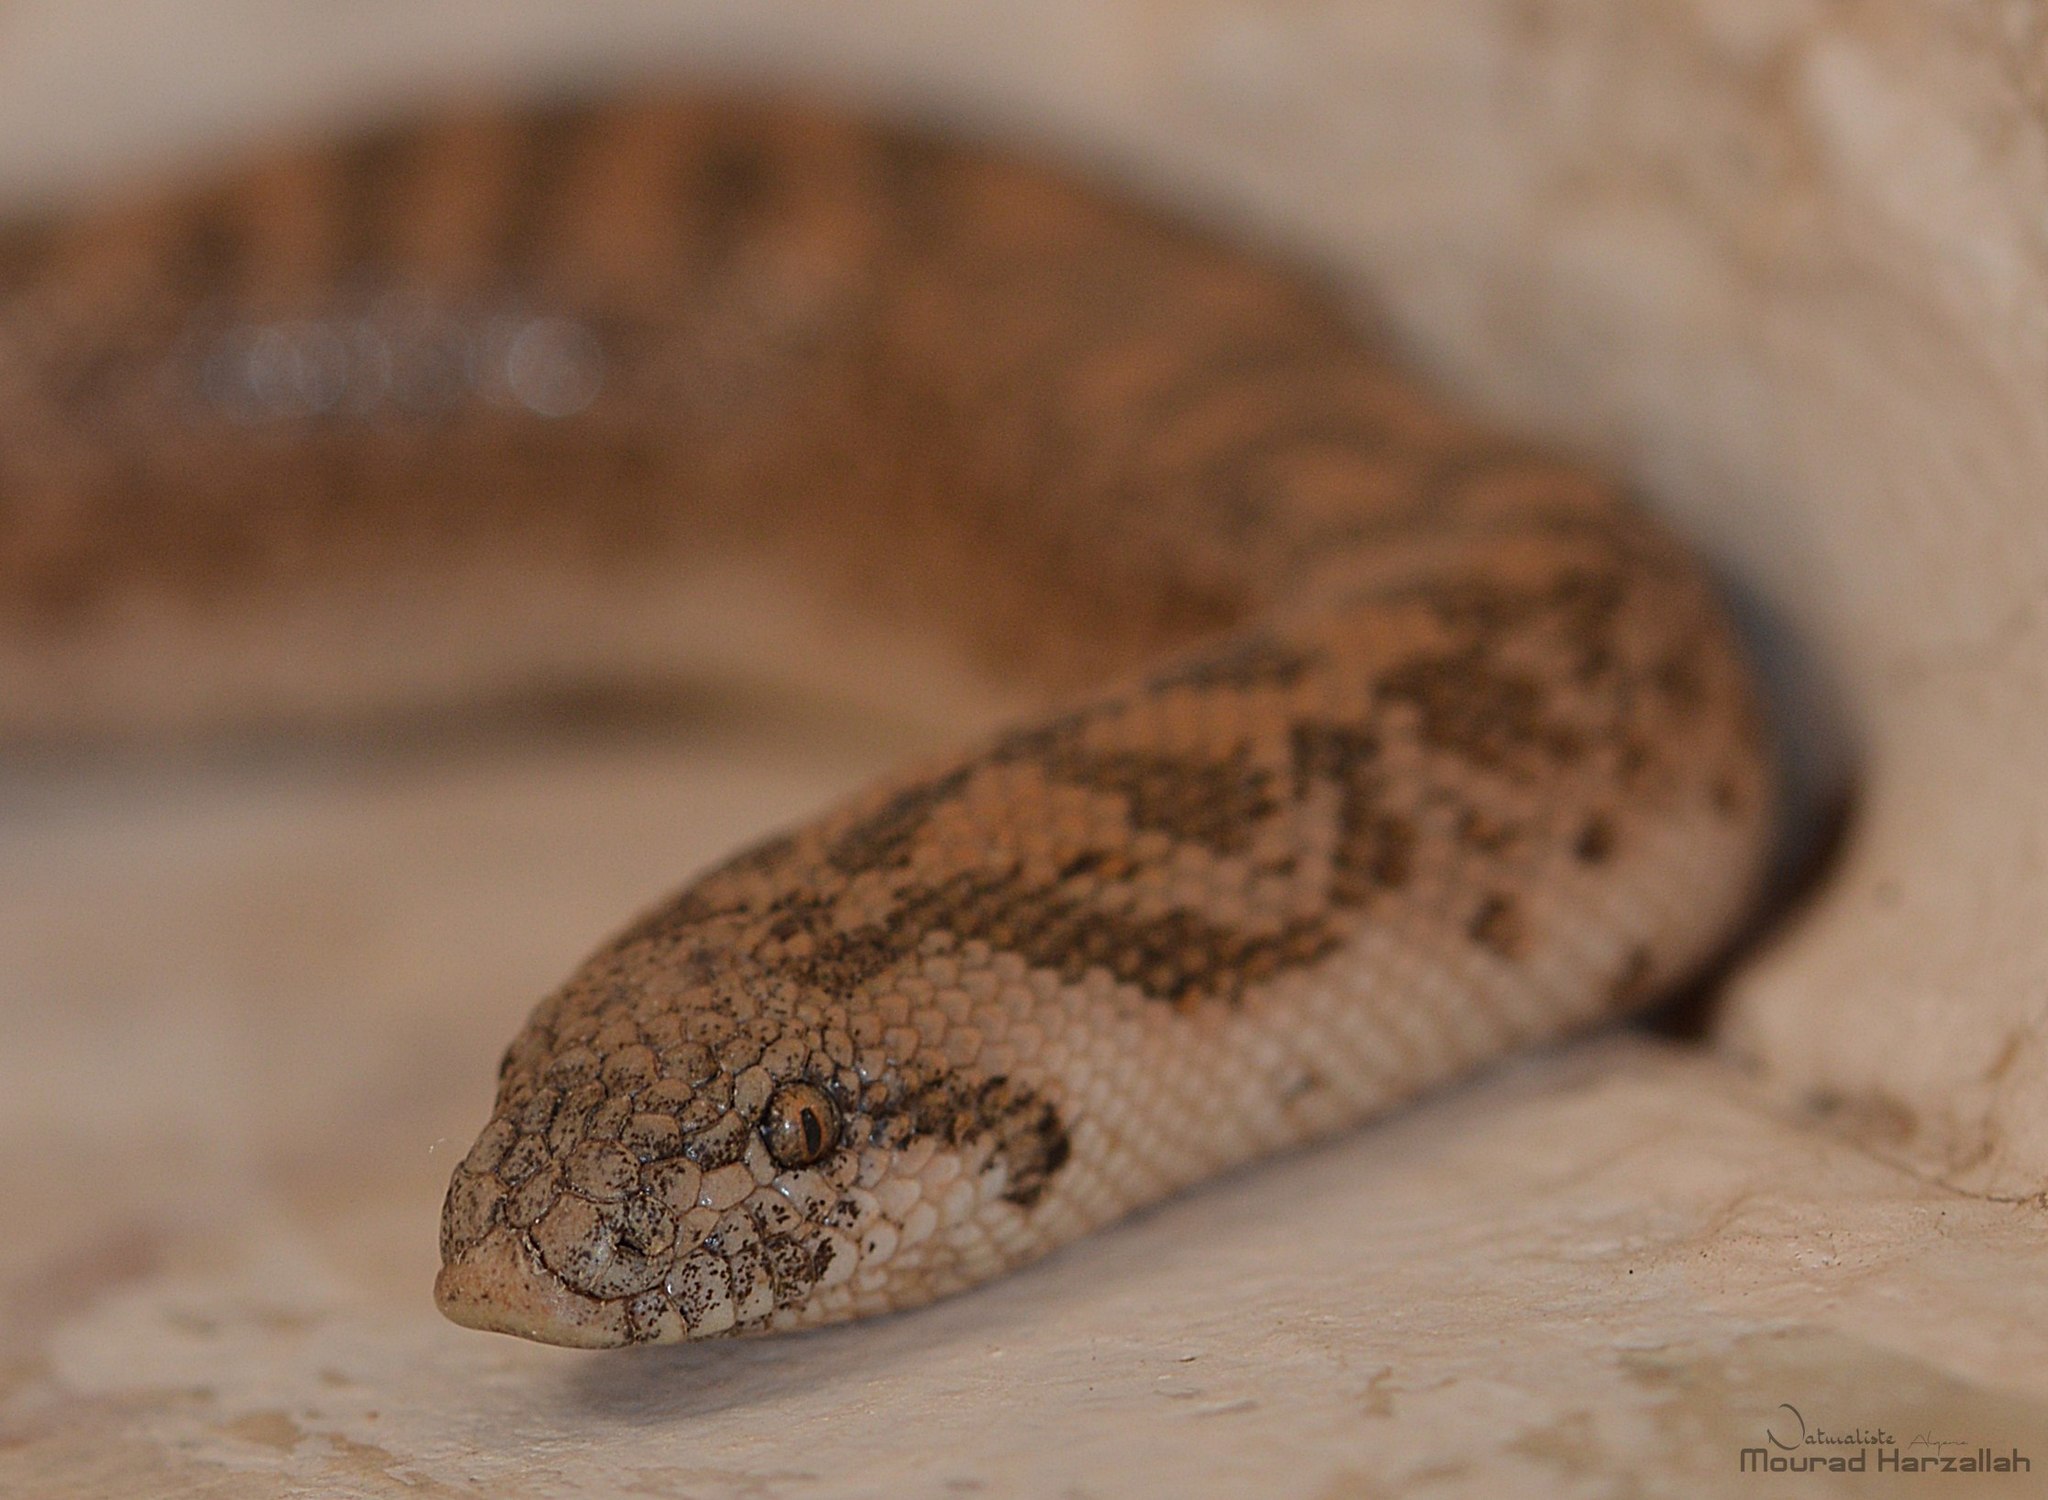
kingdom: Animalia
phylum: Chordata
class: Squamata
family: Boidae
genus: Eryx
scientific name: Eryx jaculus
